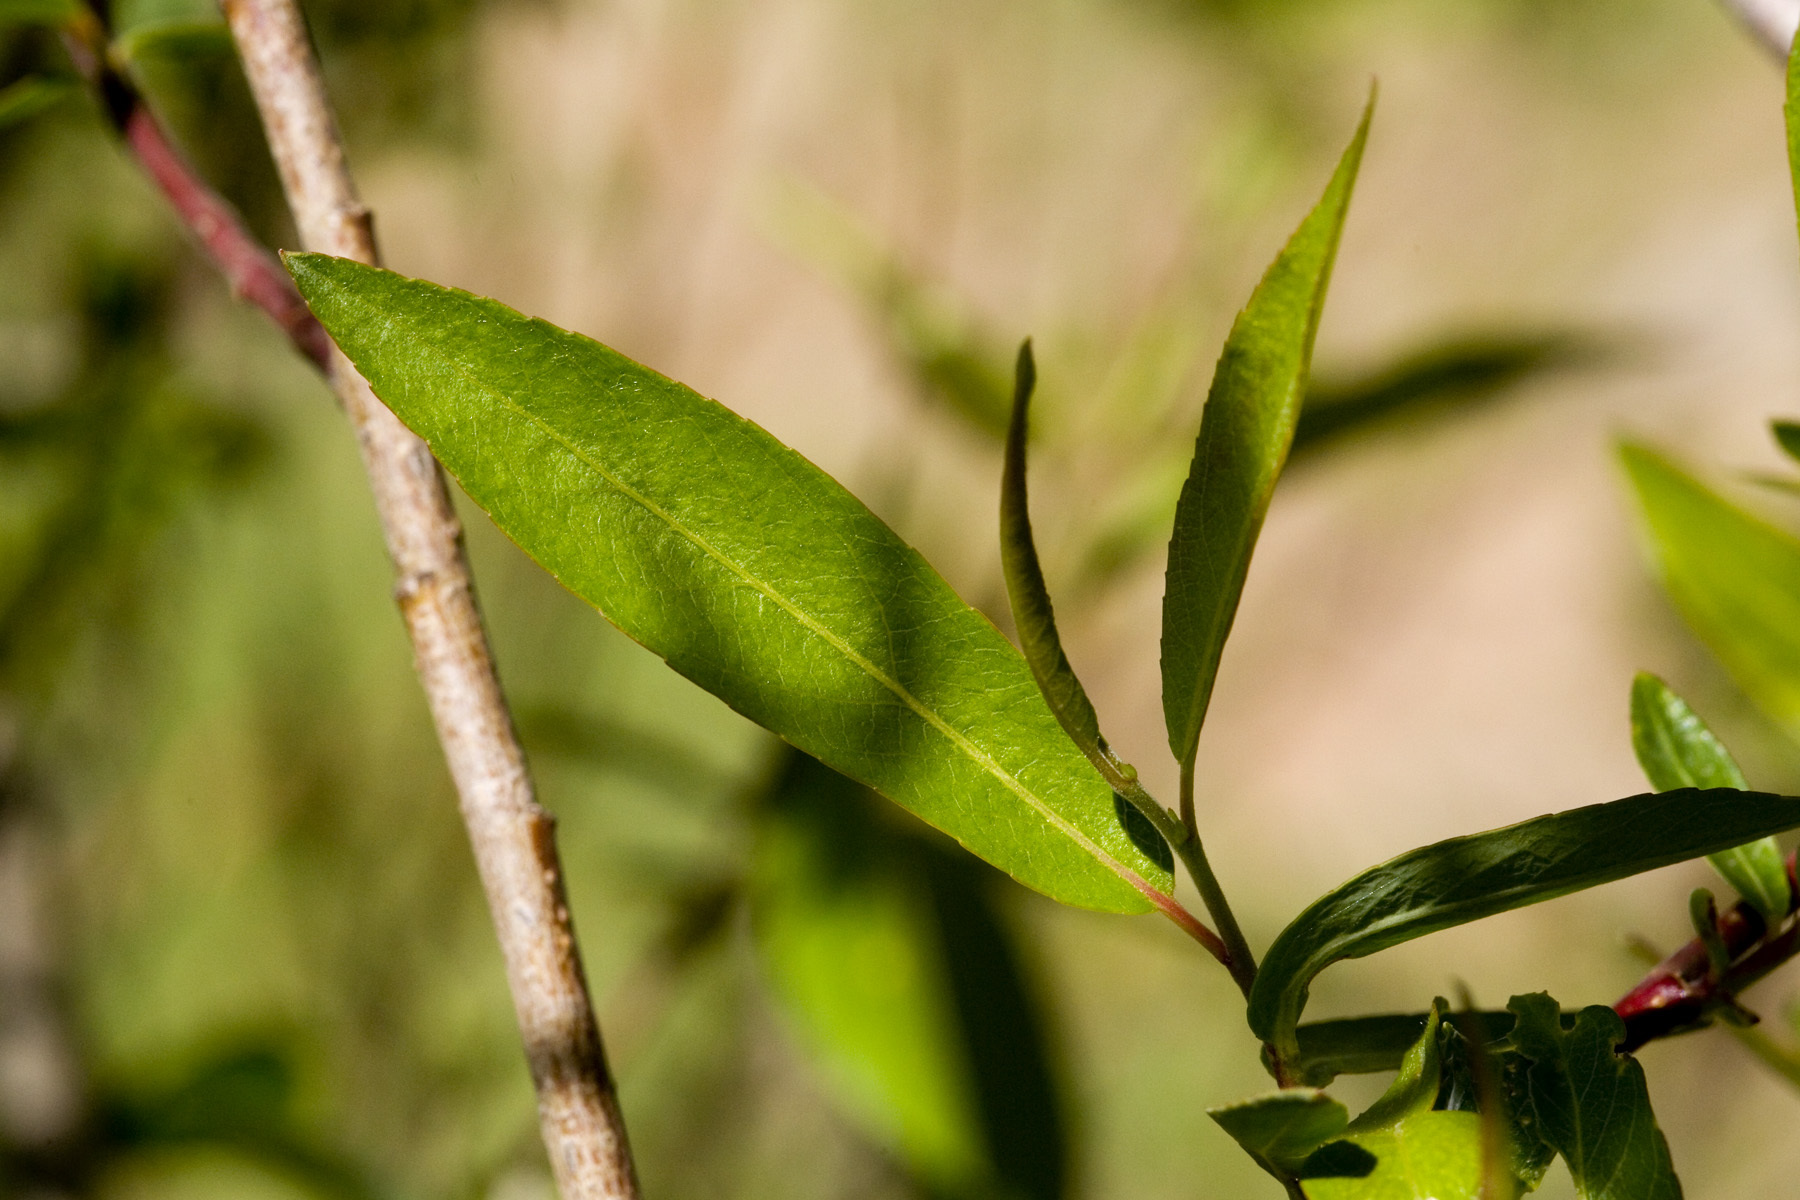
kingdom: Plantae
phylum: Tracheophyta
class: Magnoliopsida
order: Malpighiales
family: Salicaceae
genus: Salix
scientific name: Salix ligulifolia
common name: Strap-leaf willow
